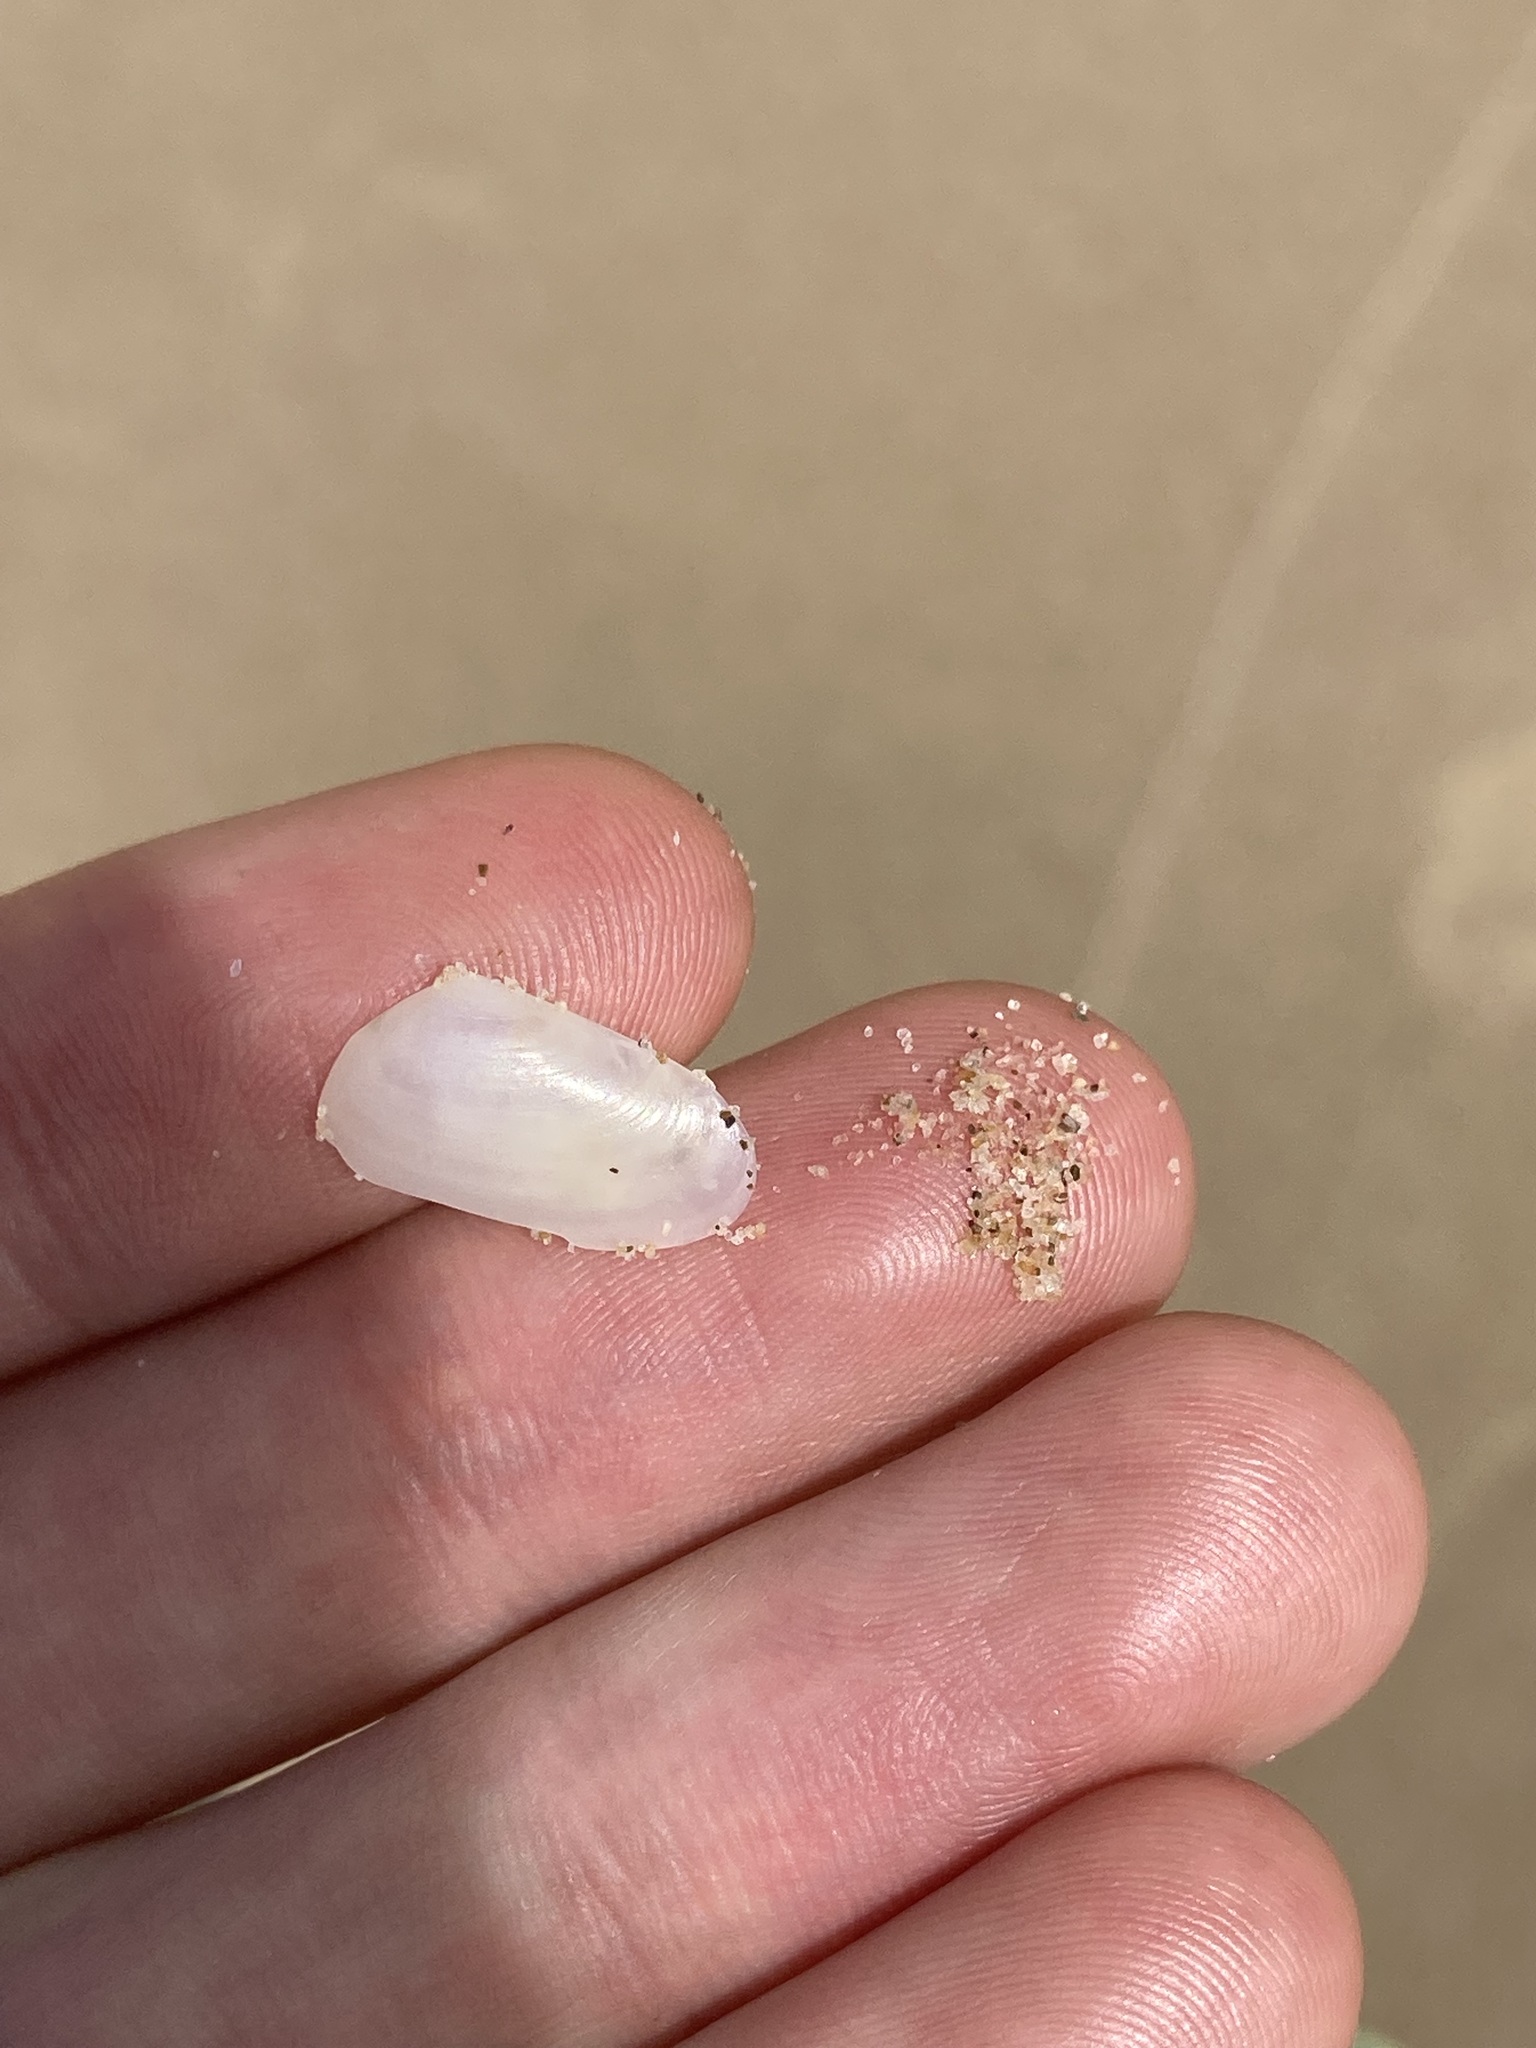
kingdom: Animalia
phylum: Mollusca
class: Bivalvia
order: Venerida
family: Mesodesmatidae
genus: Paphies
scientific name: Paphies angusta
